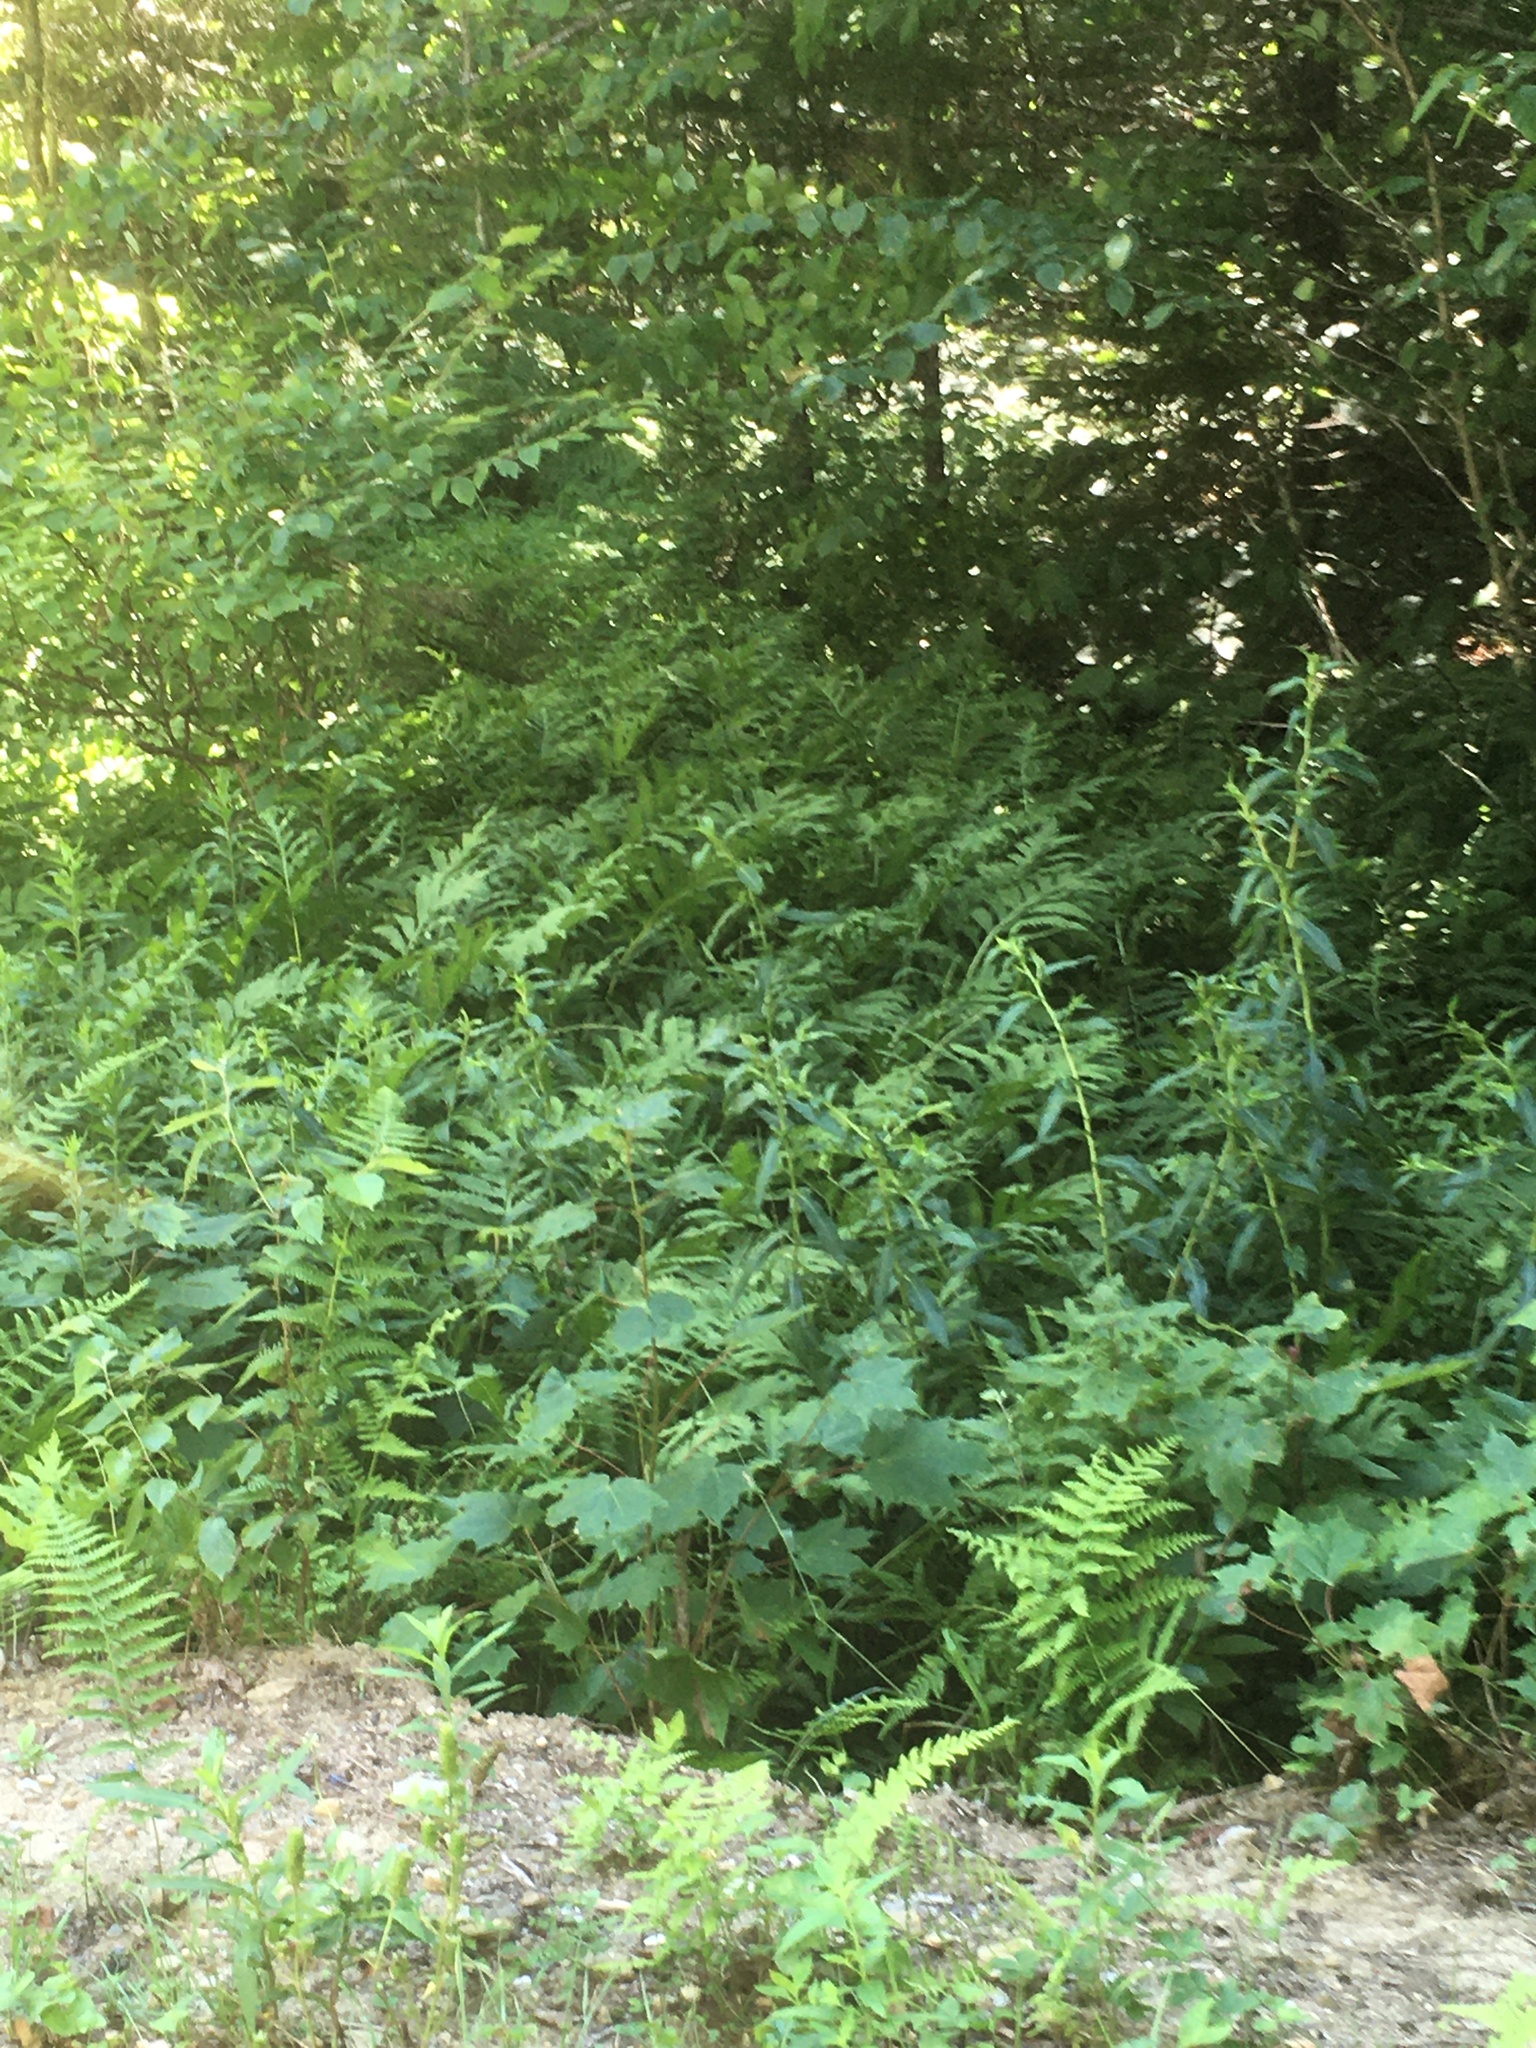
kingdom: Plantae
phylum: Tracheophyta
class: Polypodiopsida
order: Polypodiales
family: Onocleaceae
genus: Onoclea
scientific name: Onoclea sensibilis
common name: Sensitive fern
